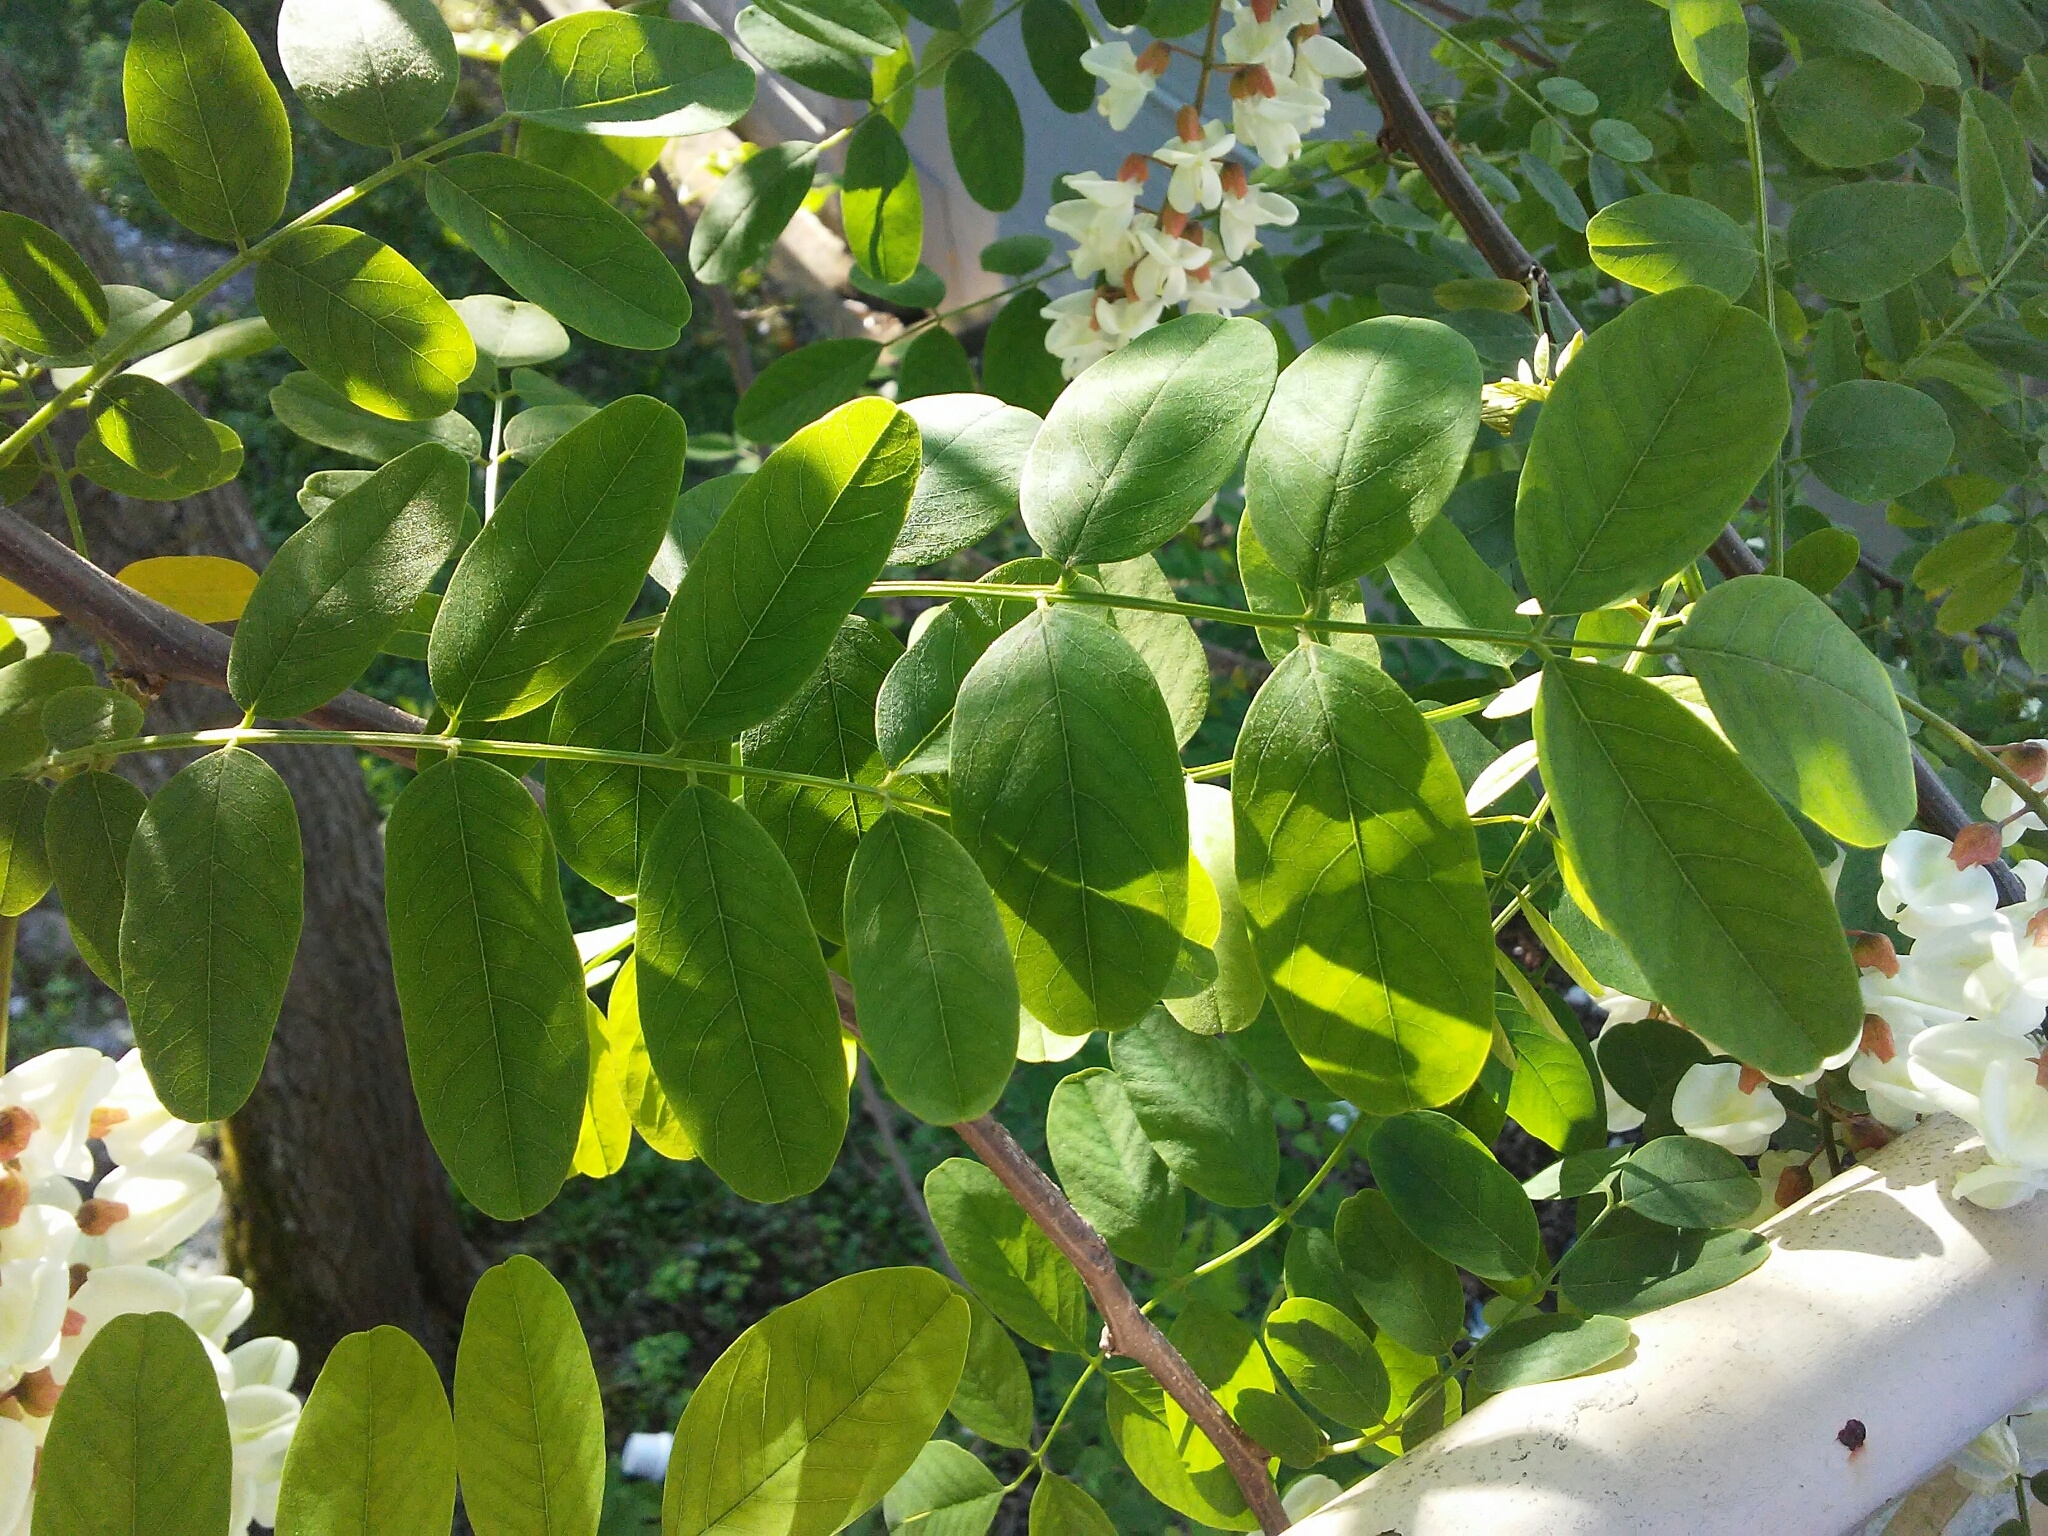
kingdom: Plantae
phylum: Tracheophyta
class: Magnoliopsida
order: Fabales
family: Fabaceae
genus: Robinia
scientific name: Robinia pseudoacacia
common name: Black locust
